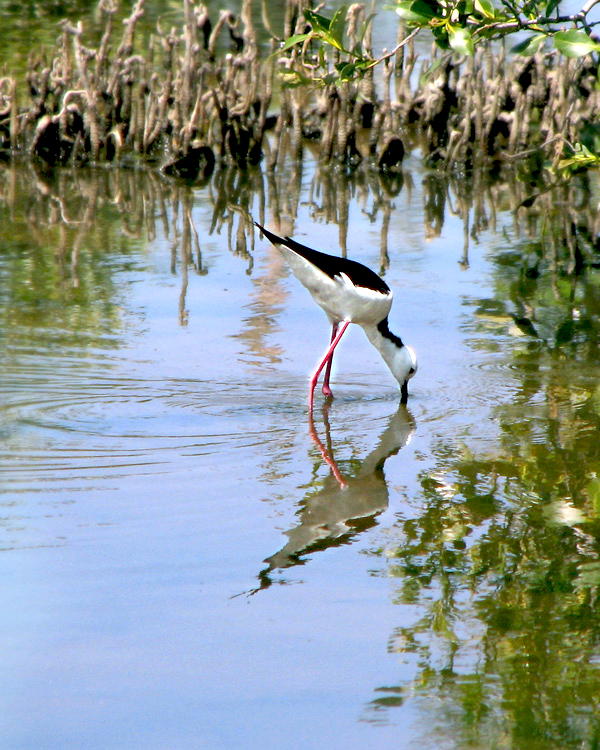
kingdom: Animalia
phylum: Chordata
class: Aves
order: Charadriiformes
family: Recurvirostridae
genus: Himantopus
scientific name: Himantopus leucocephalus
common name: White-headed stilt
